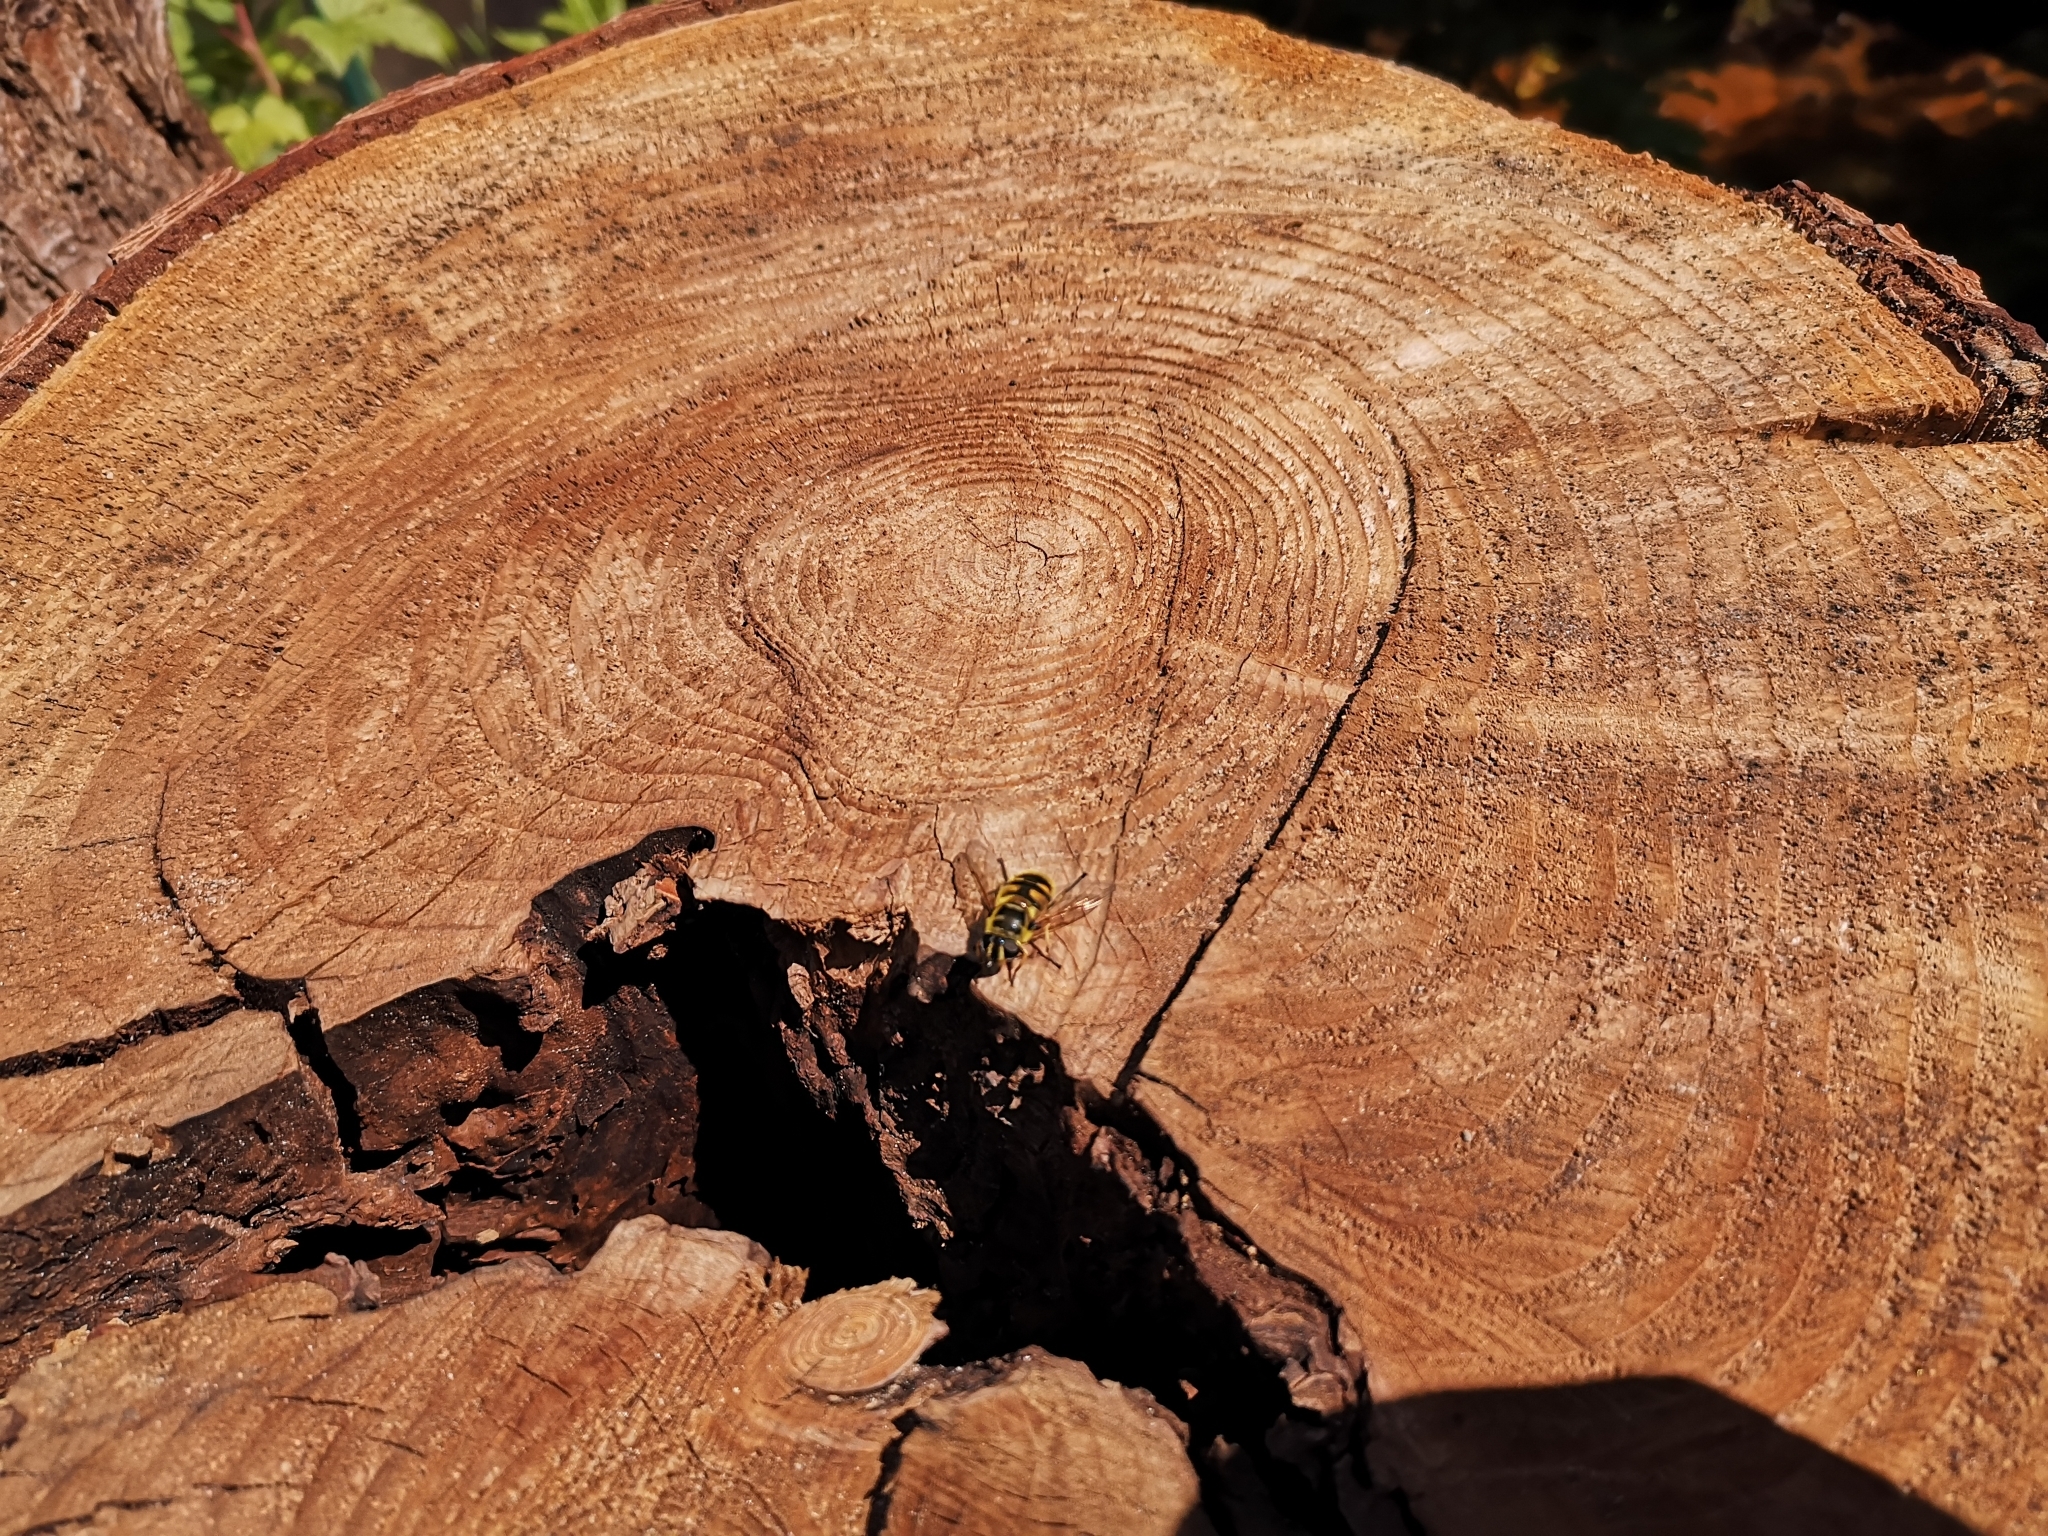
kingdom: Animalia
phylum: Arthropoda
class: Insecta
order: Diptera
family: Syrphidae
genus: Myathropa
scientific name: Myathropa florea
